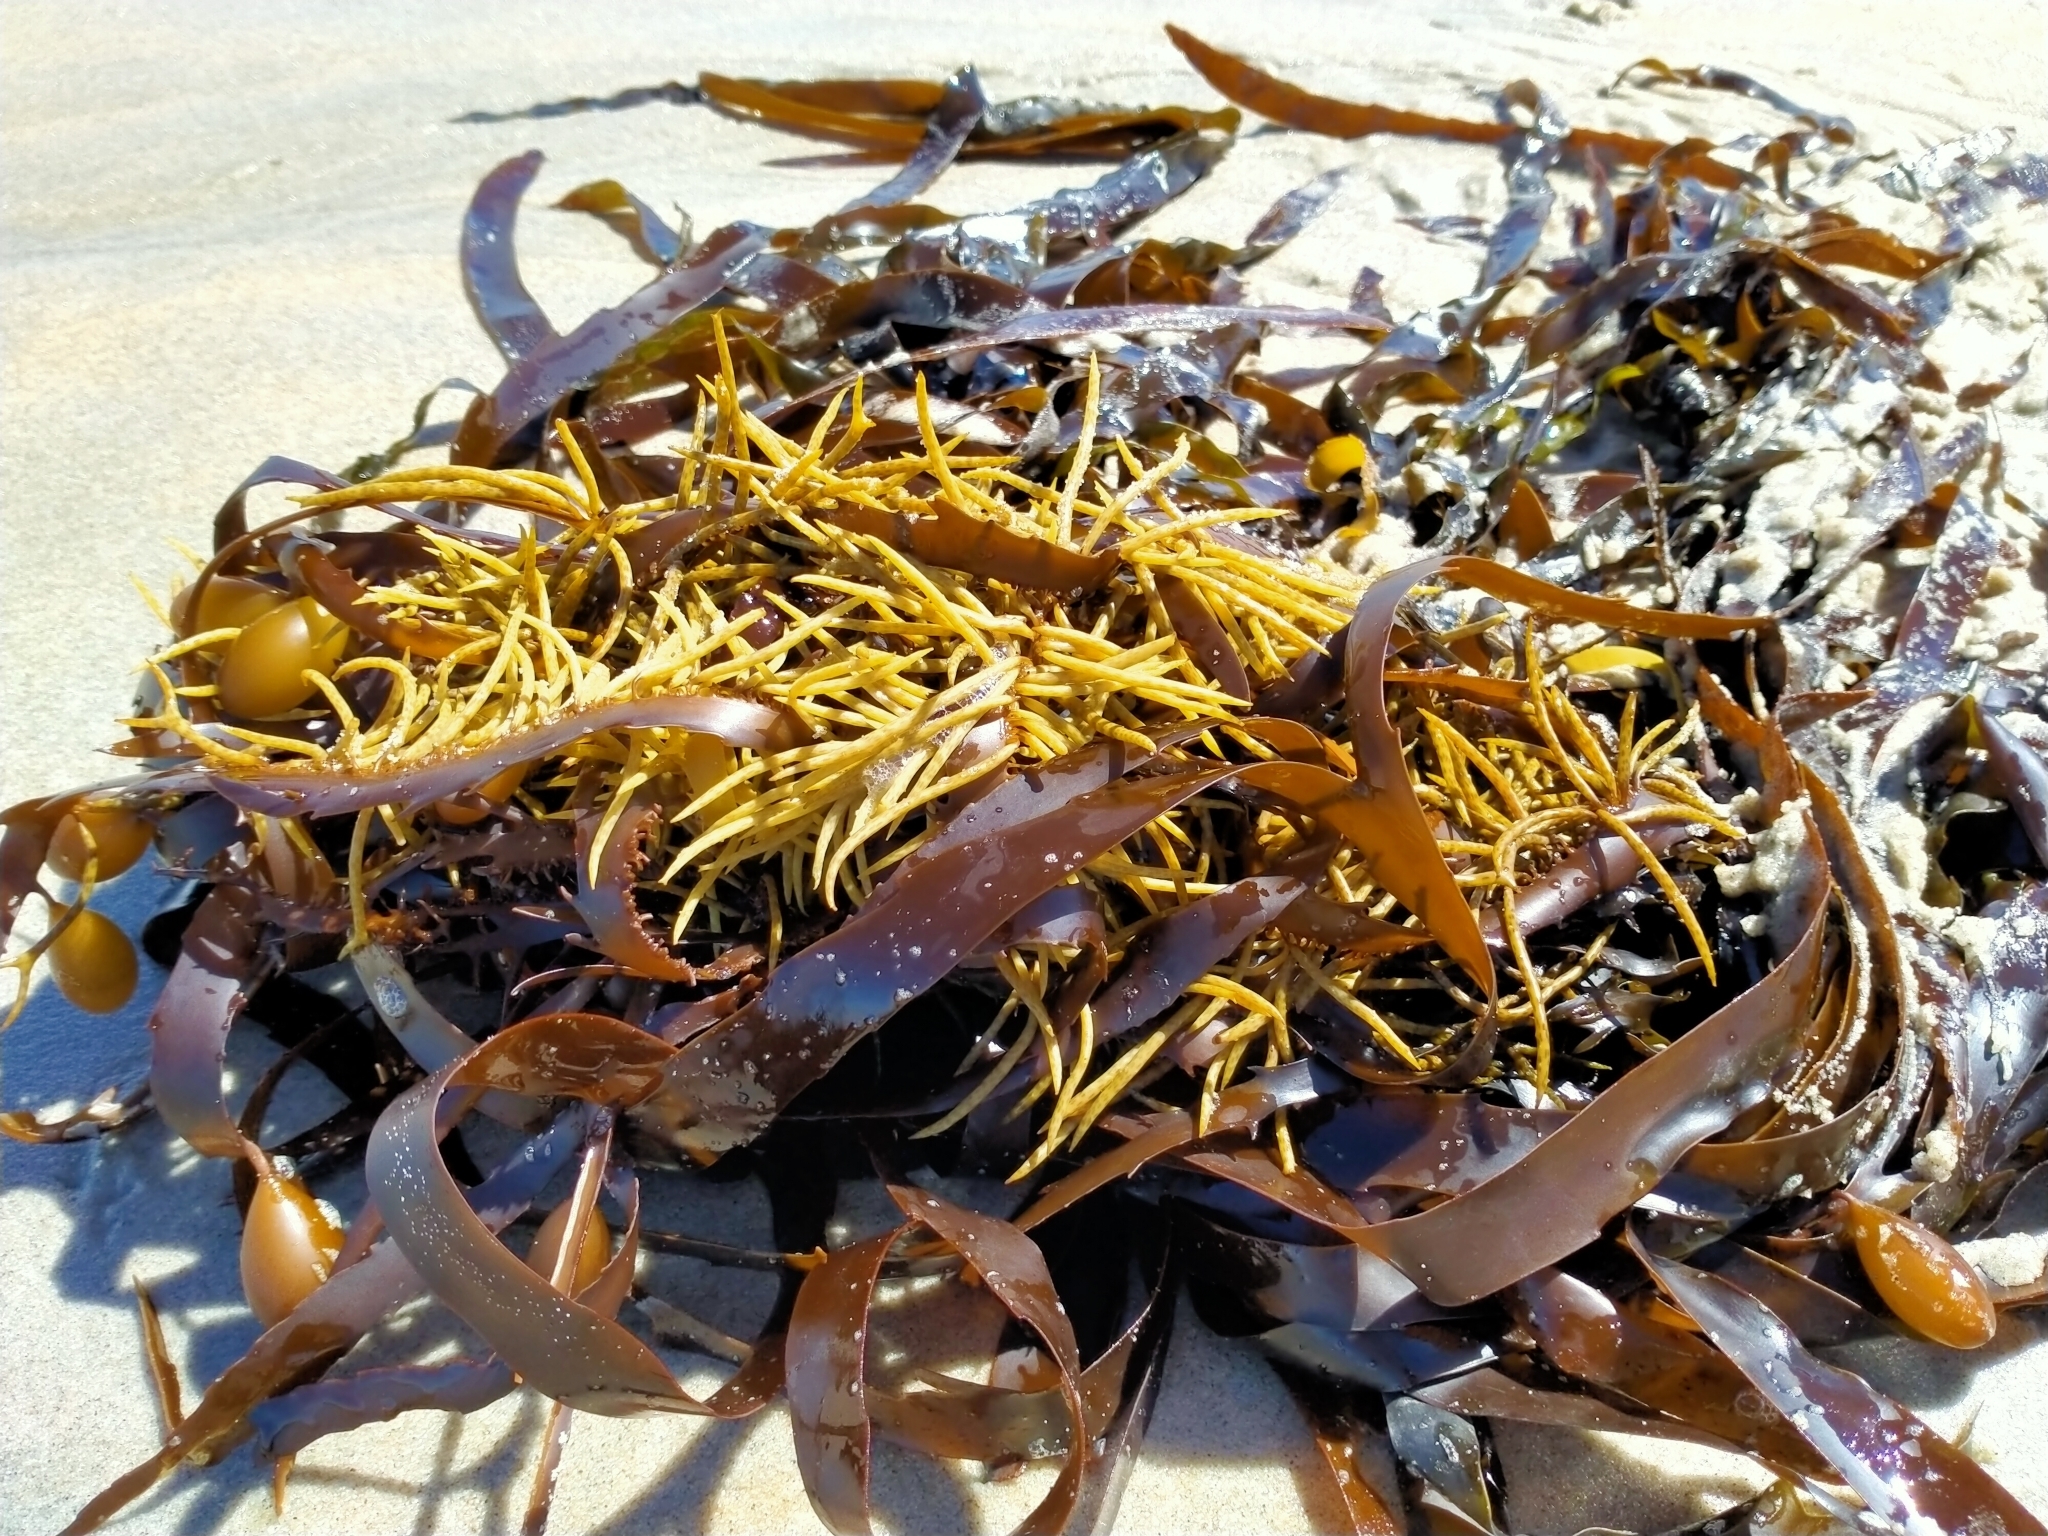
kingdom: Chromista
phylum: Ochrophyta
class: Phaeophyceae
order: Fucales
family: Seirococcaceae
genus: Marginariella
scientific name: Marginariella boryana
